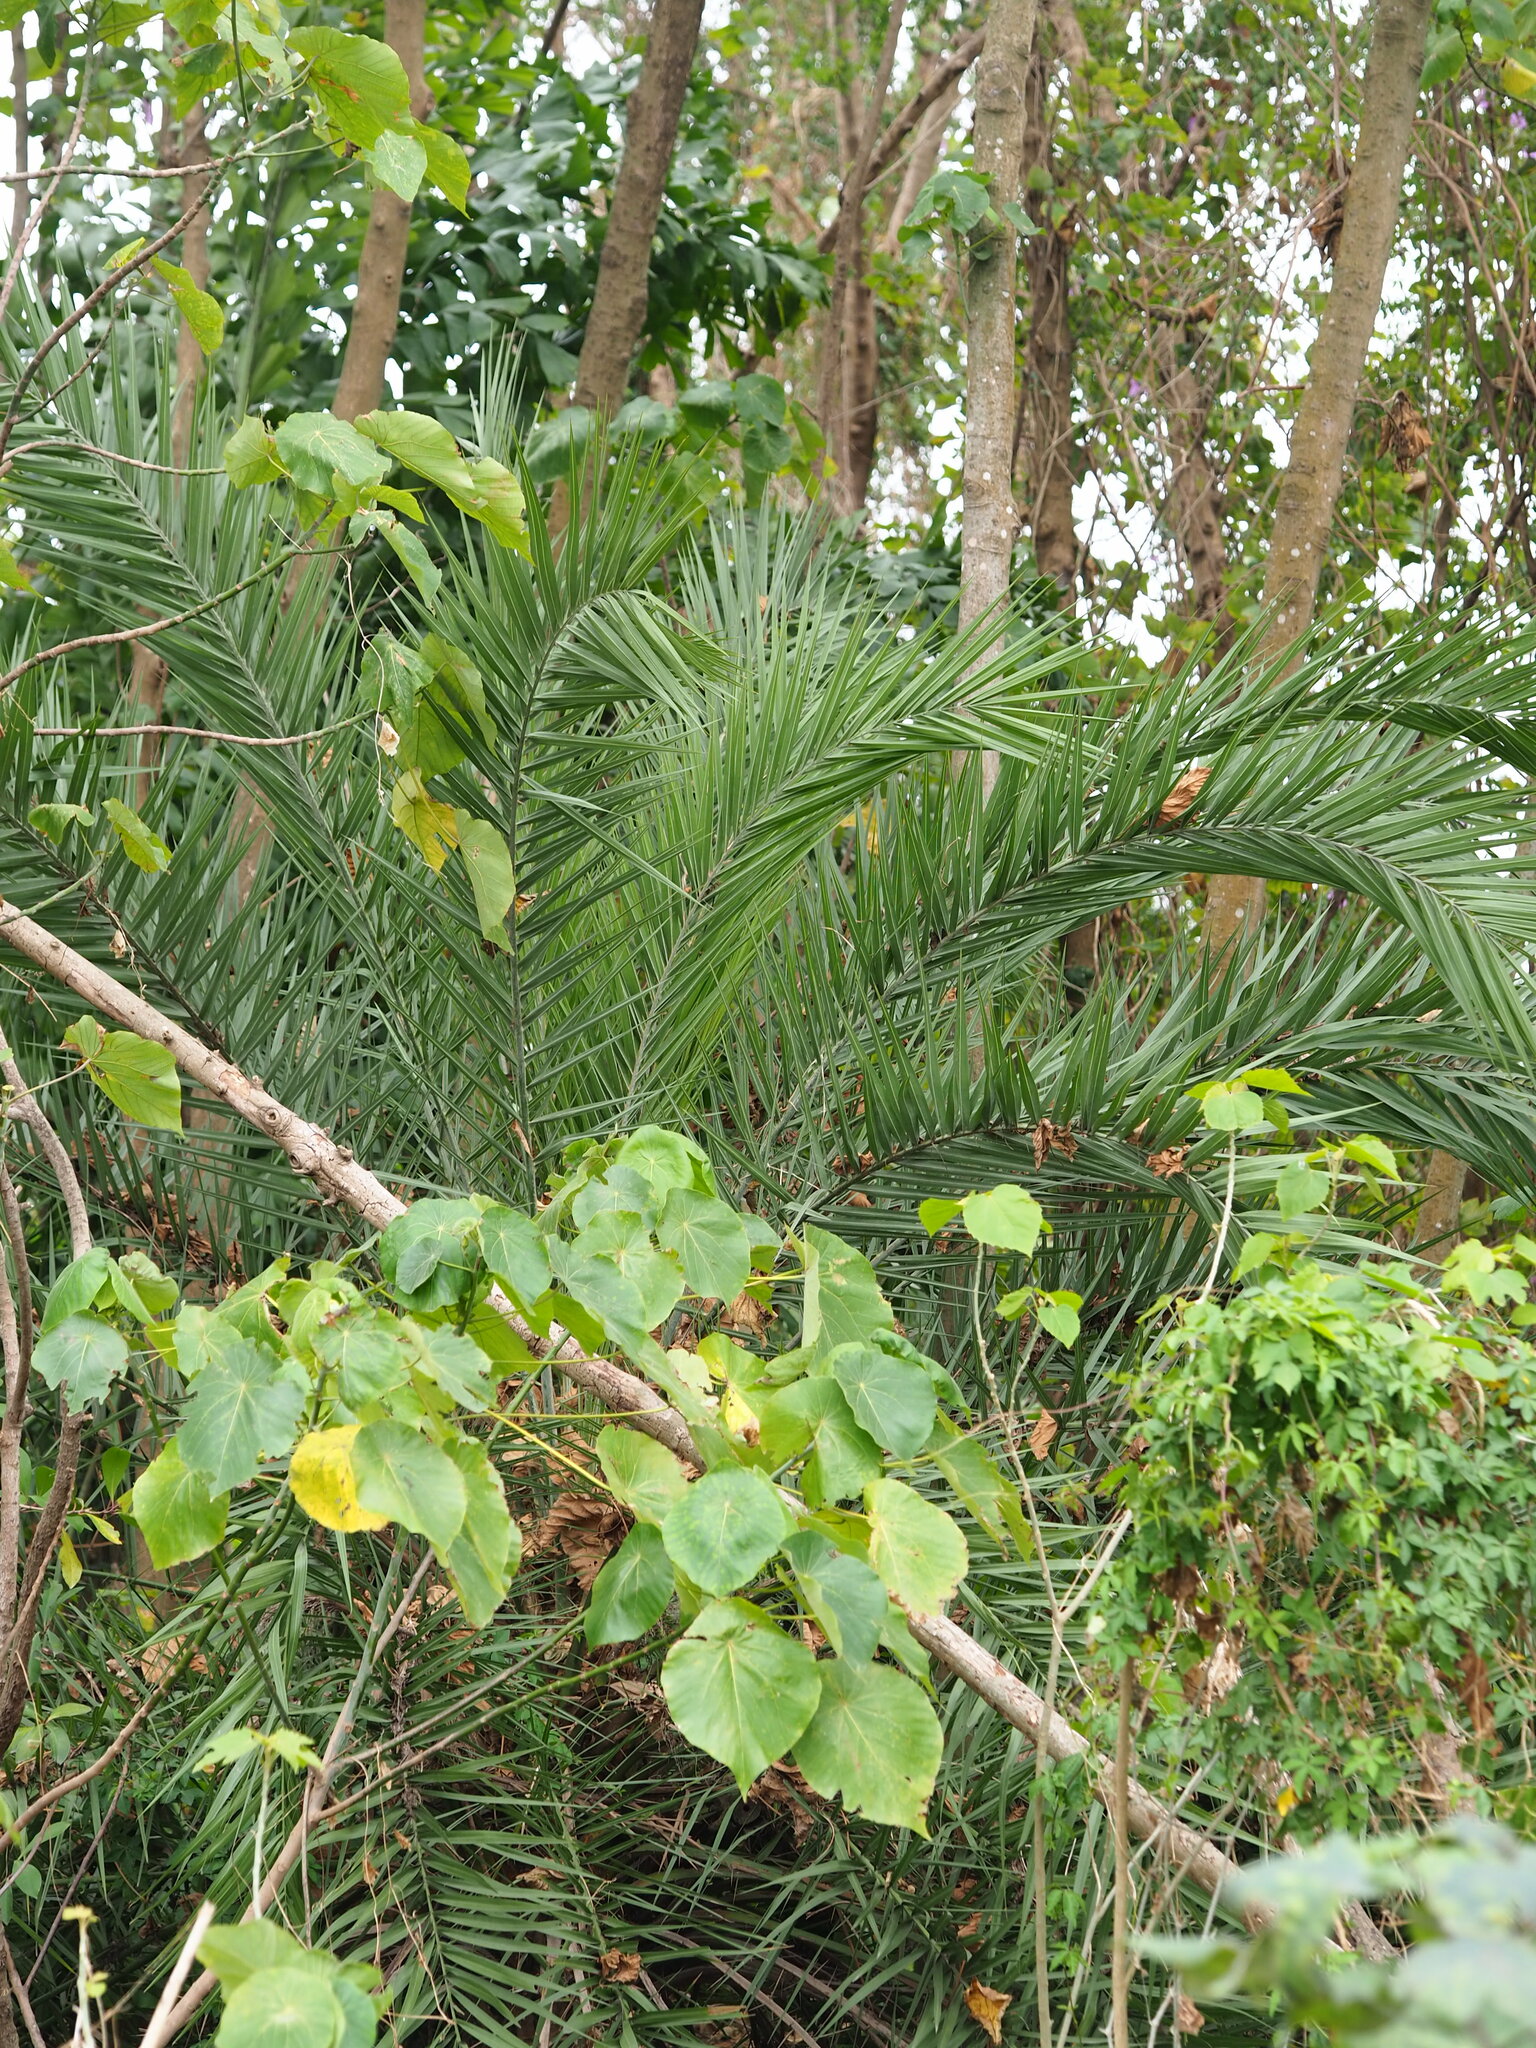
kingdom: Plantae
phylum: Tracheophyta
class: Liliopsida
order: Arecales
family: Arecaceae
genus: Phoenix
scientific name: Phoenix loureiroi
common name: Loureiro's palm
